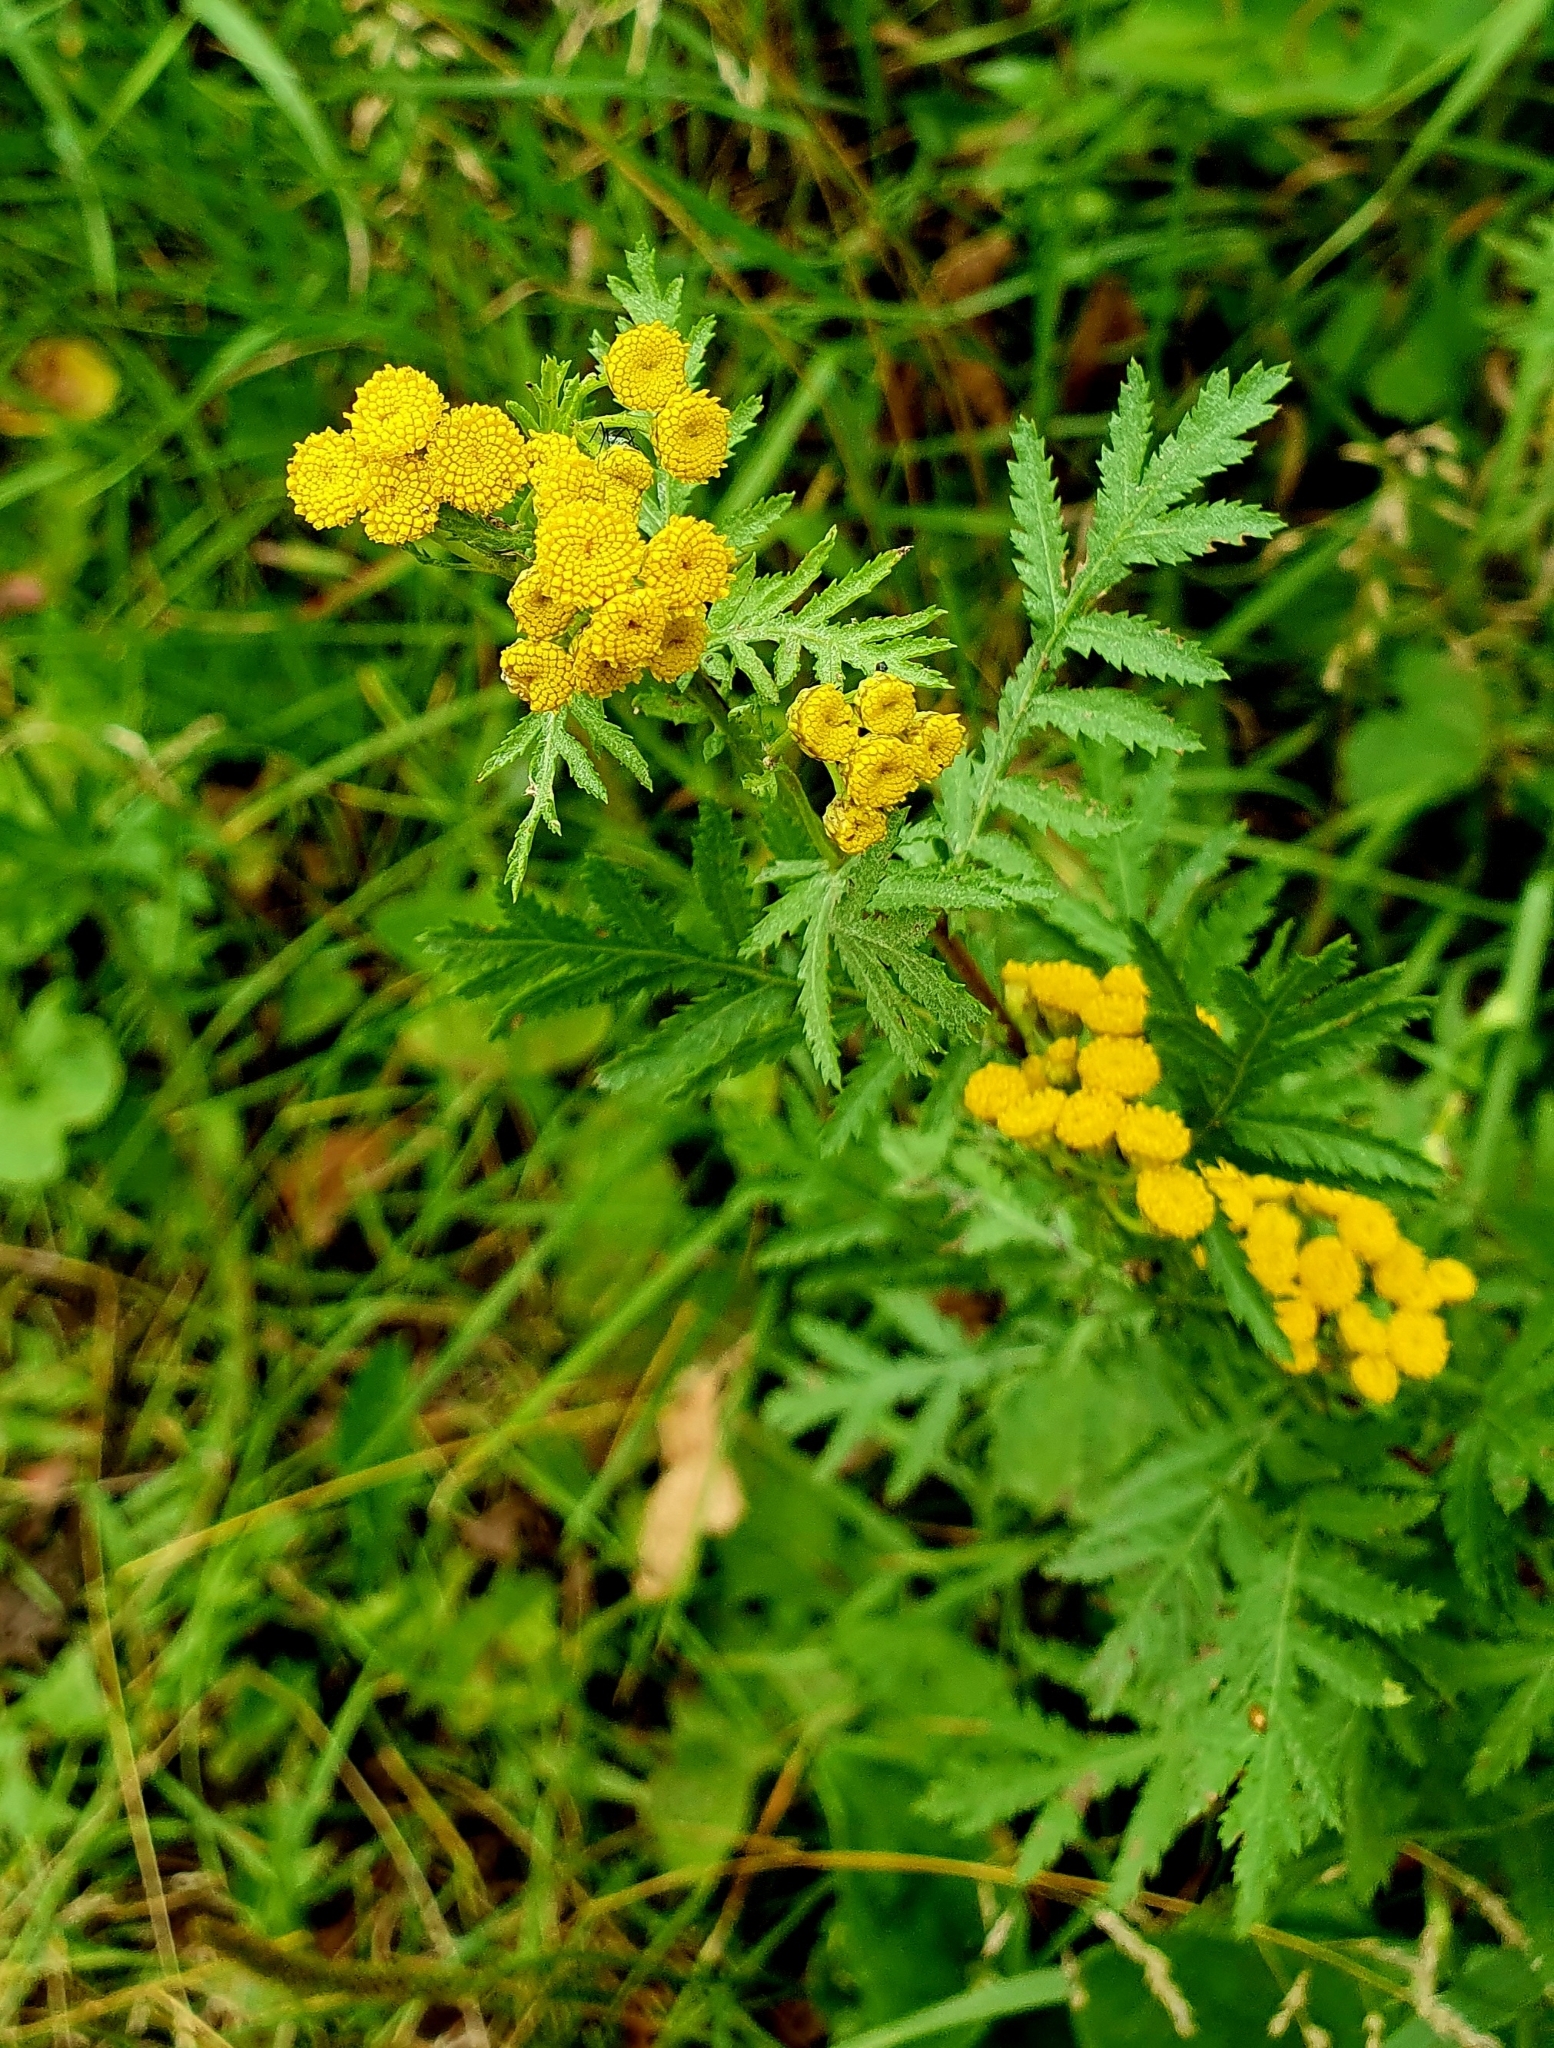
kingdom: Plantae
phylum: Tracheophyta
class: Magnoliopsida
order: Asterales
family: Asteraceae
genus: Tanacetum
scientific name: Tanacetum vulgare
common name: Common tansy
